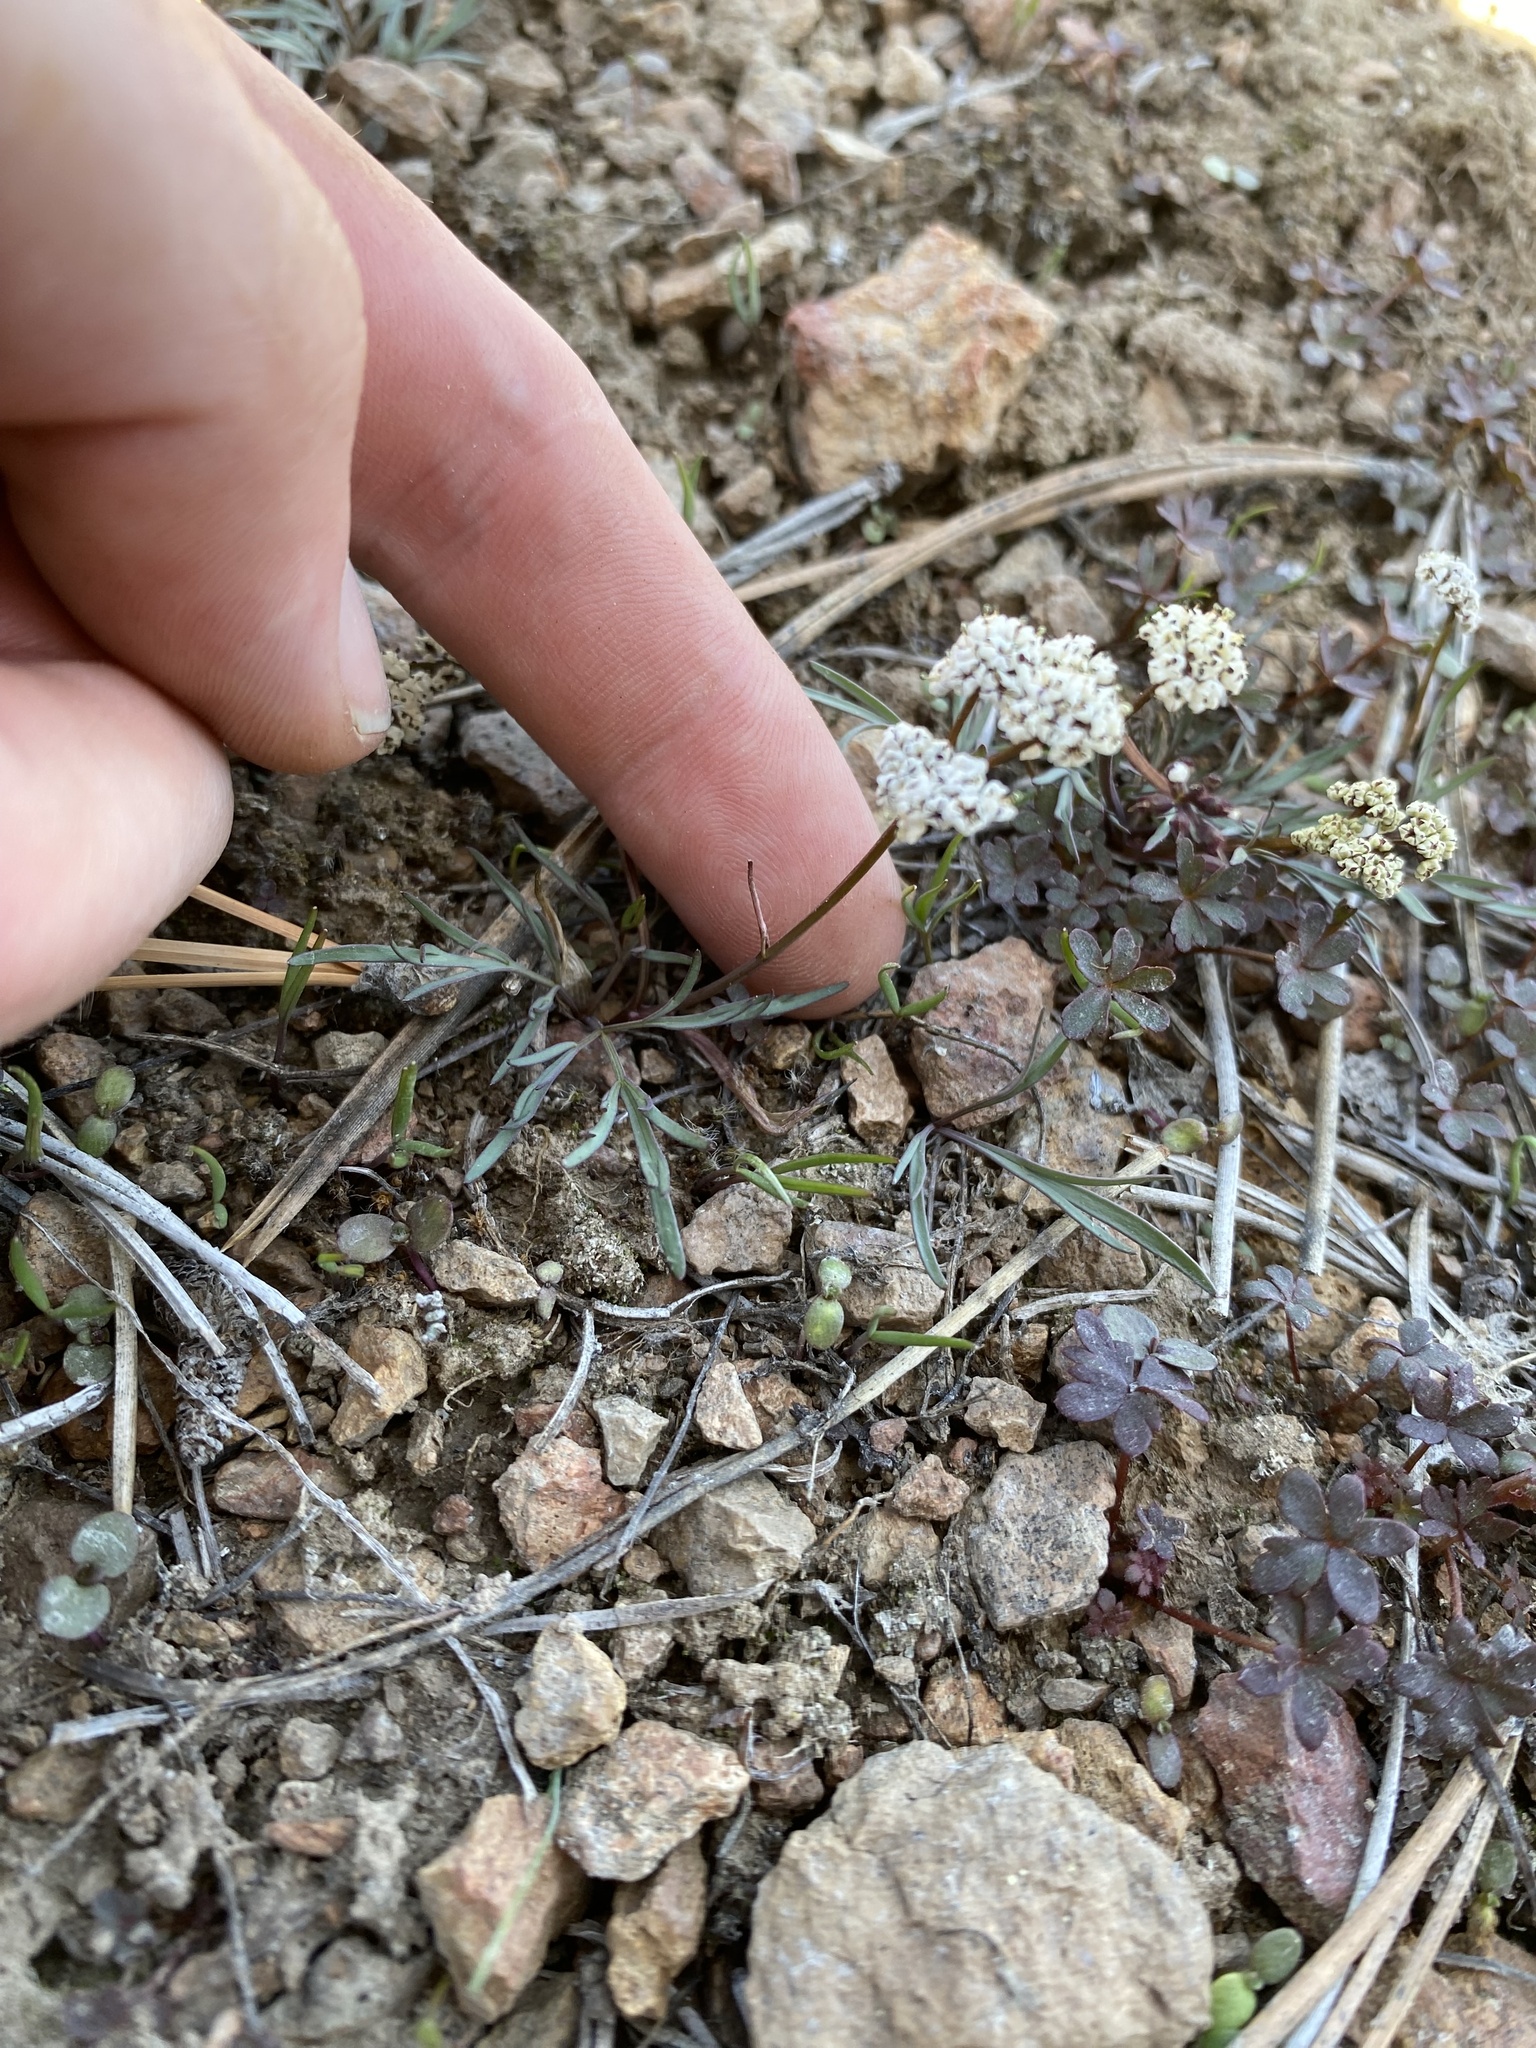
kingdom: Plantae
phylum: Tracheophyta
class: Magnoliopsida
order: Apiales
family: Apiaceae
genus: Lomatium
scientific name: Lomatium piperi
